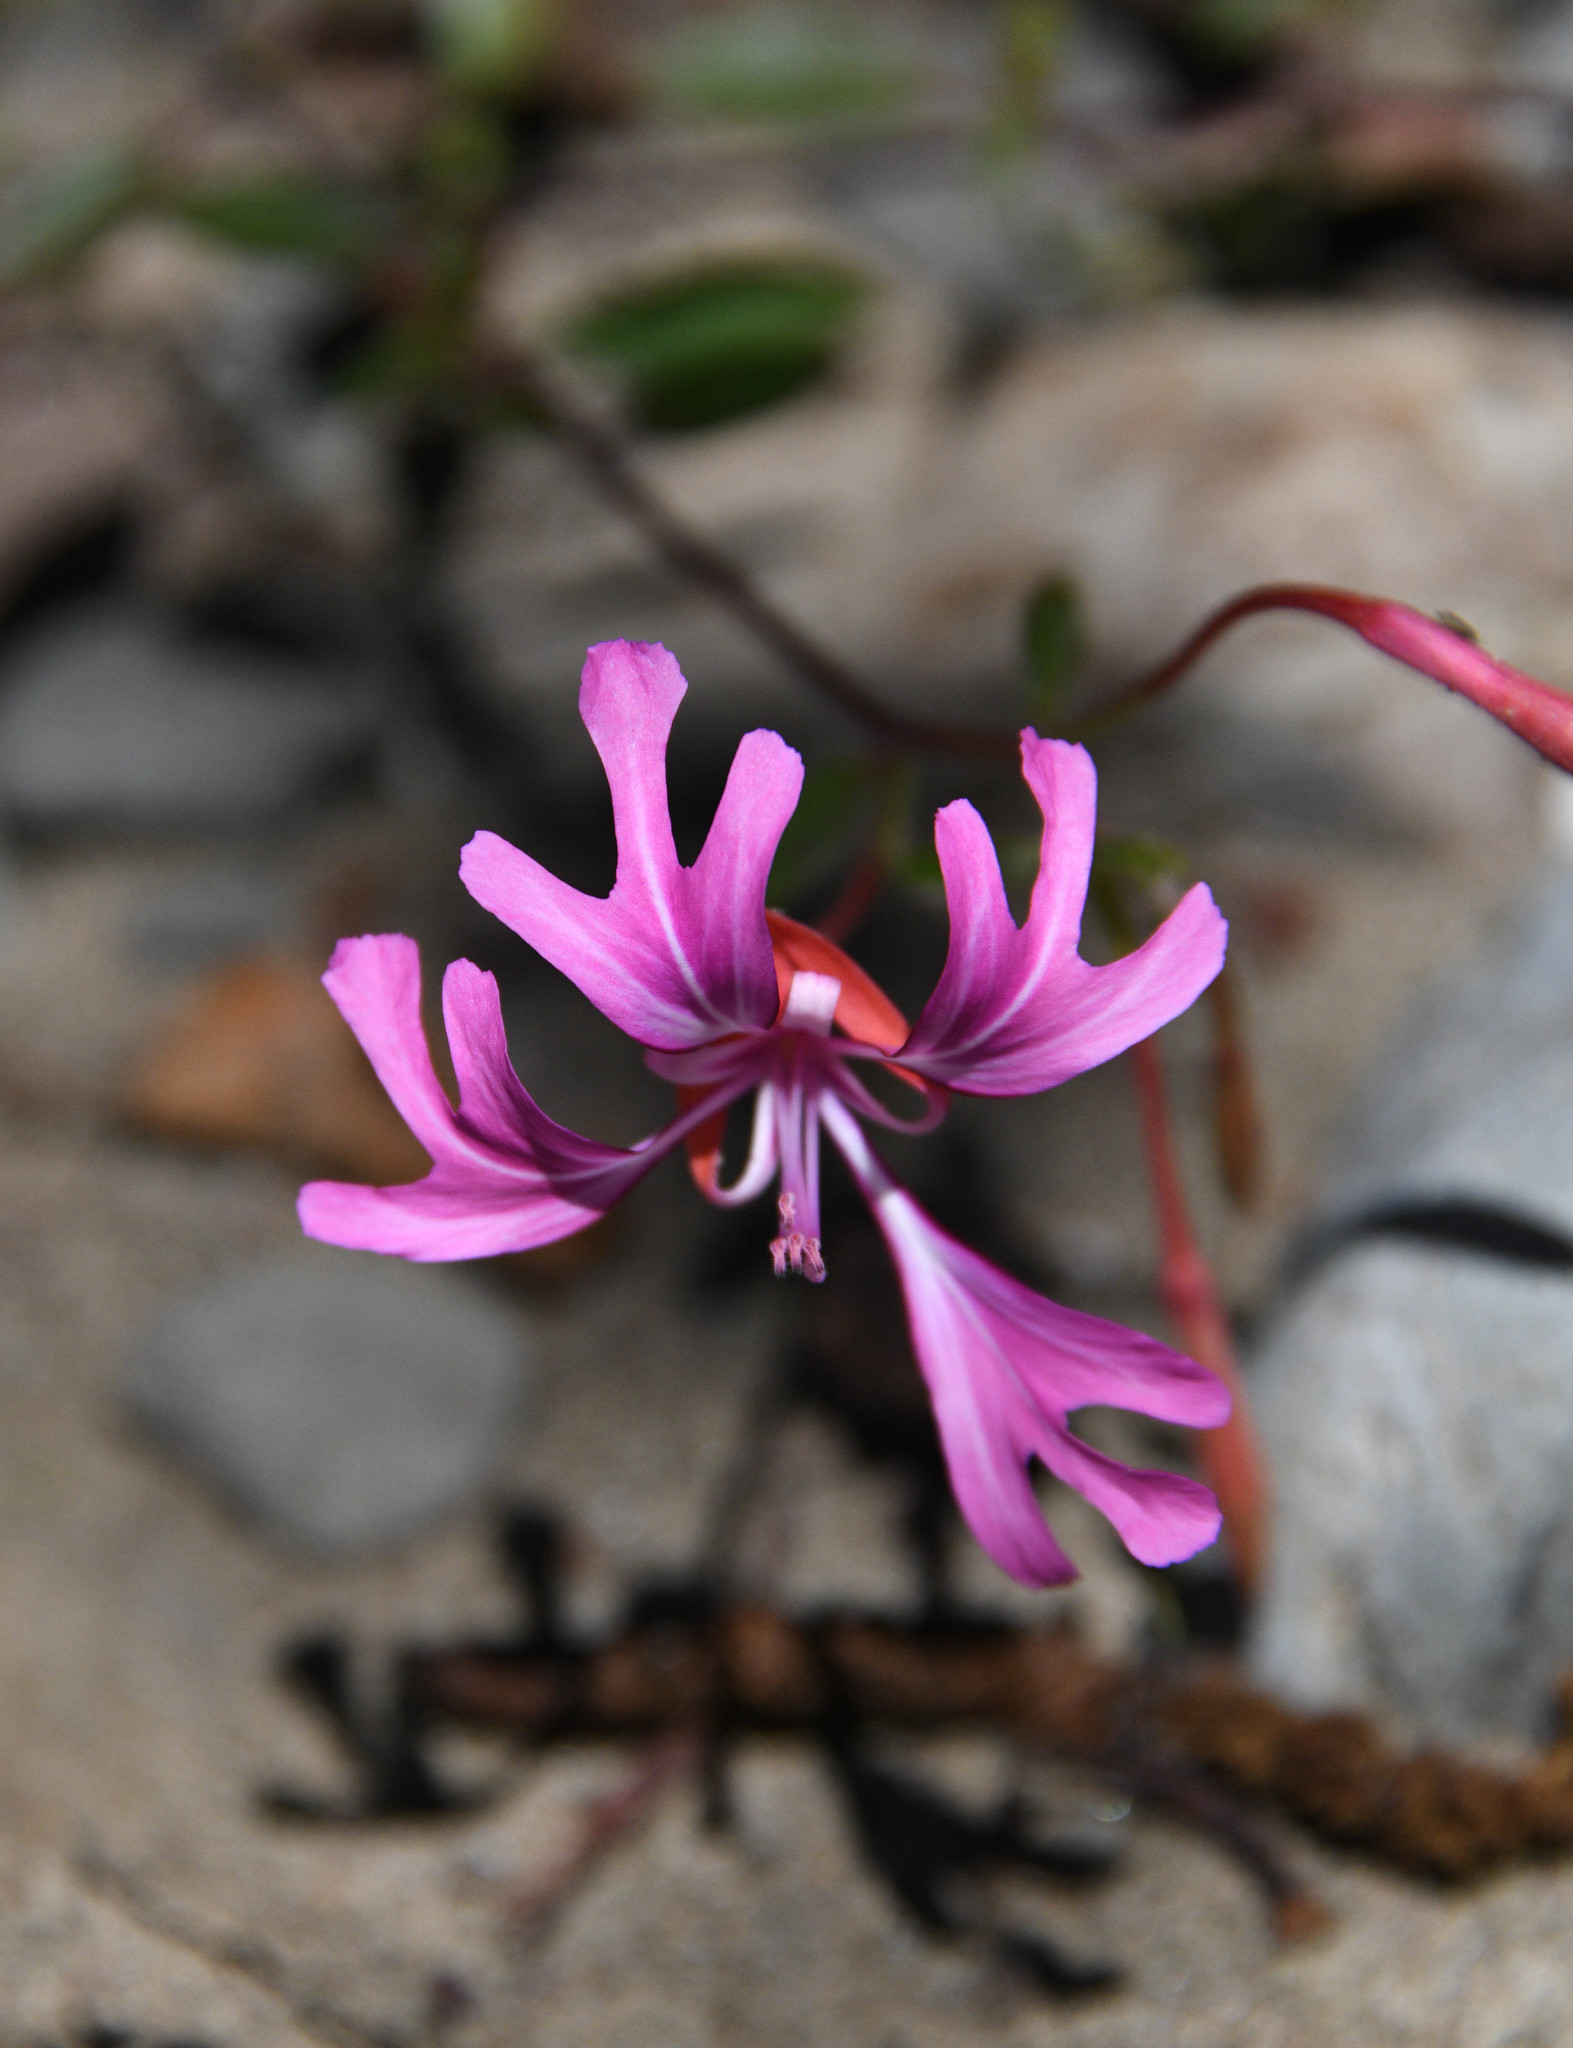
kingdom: Plantae
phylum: Tracheophyta
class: Magnoliopsida
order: Myrtales
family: Onagraceae
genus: Clarkia
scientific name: Clarkia concinna
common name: Red-ribbons
